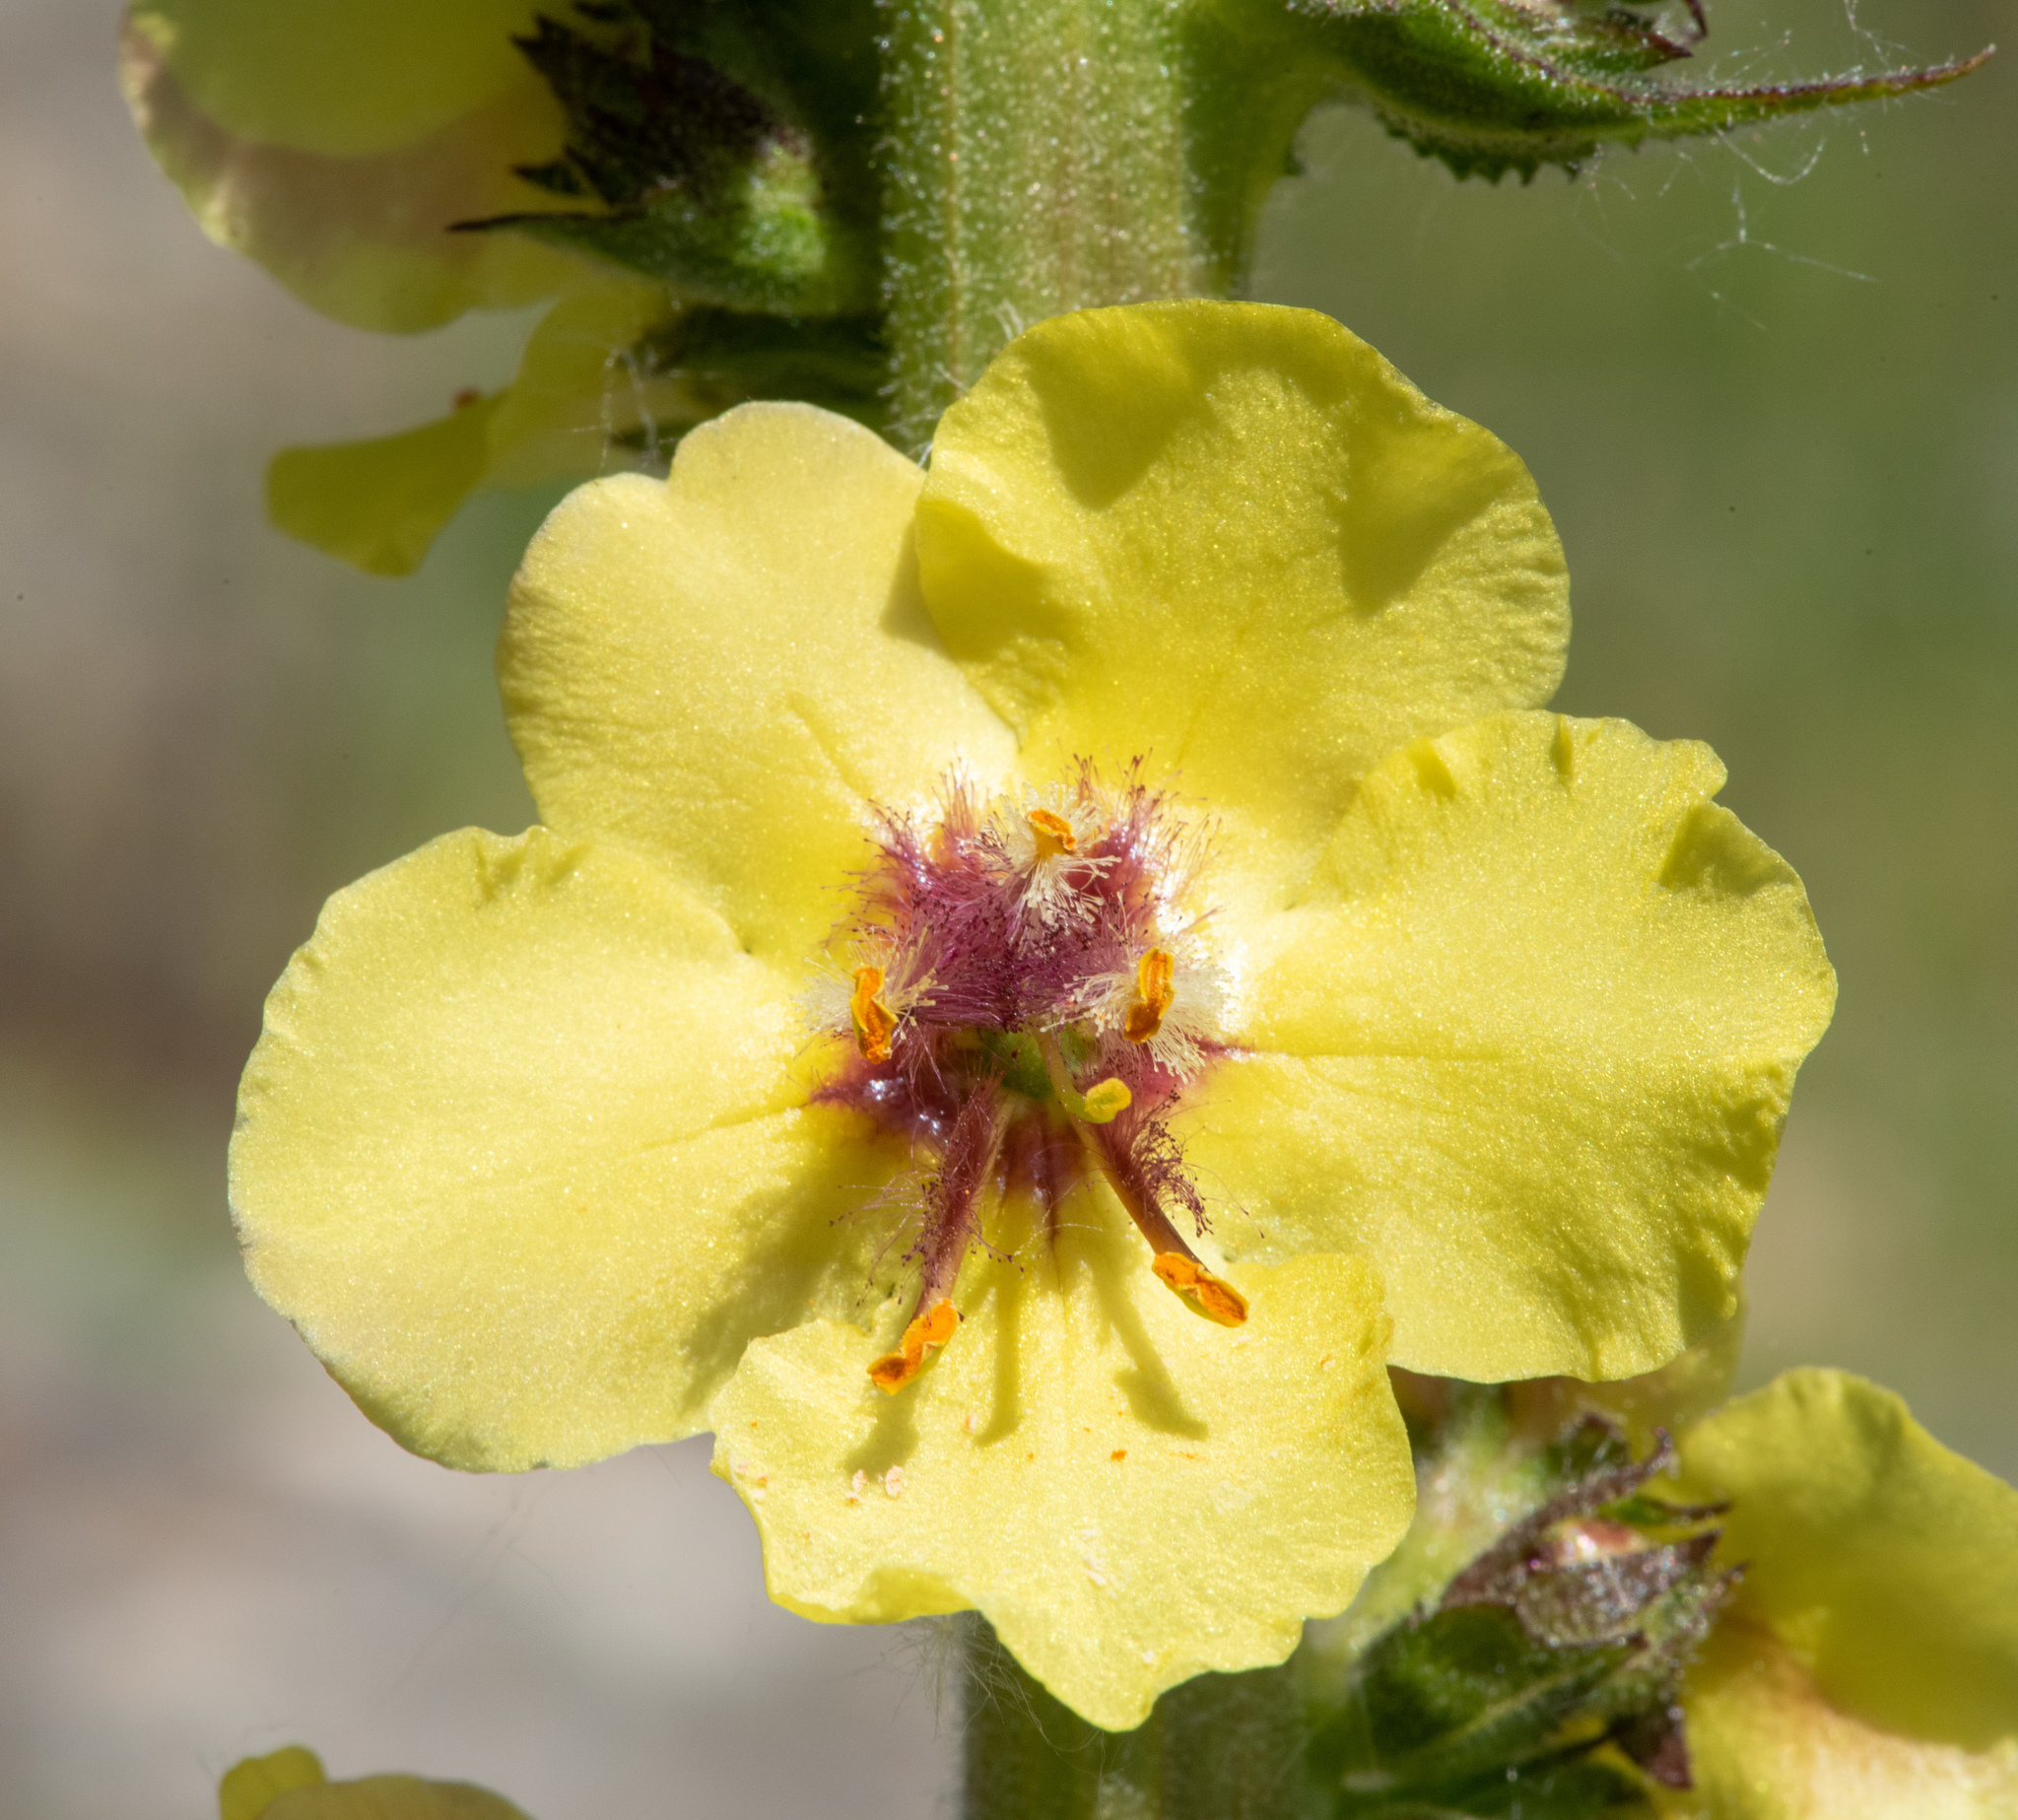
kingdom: Plantae
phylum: Tracheophyta
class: Magnoliopsida
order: Lamiales
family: Scrophulariaceae
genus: Verbascum
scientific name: Verbascum virgatum
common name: Twiggy mullein
